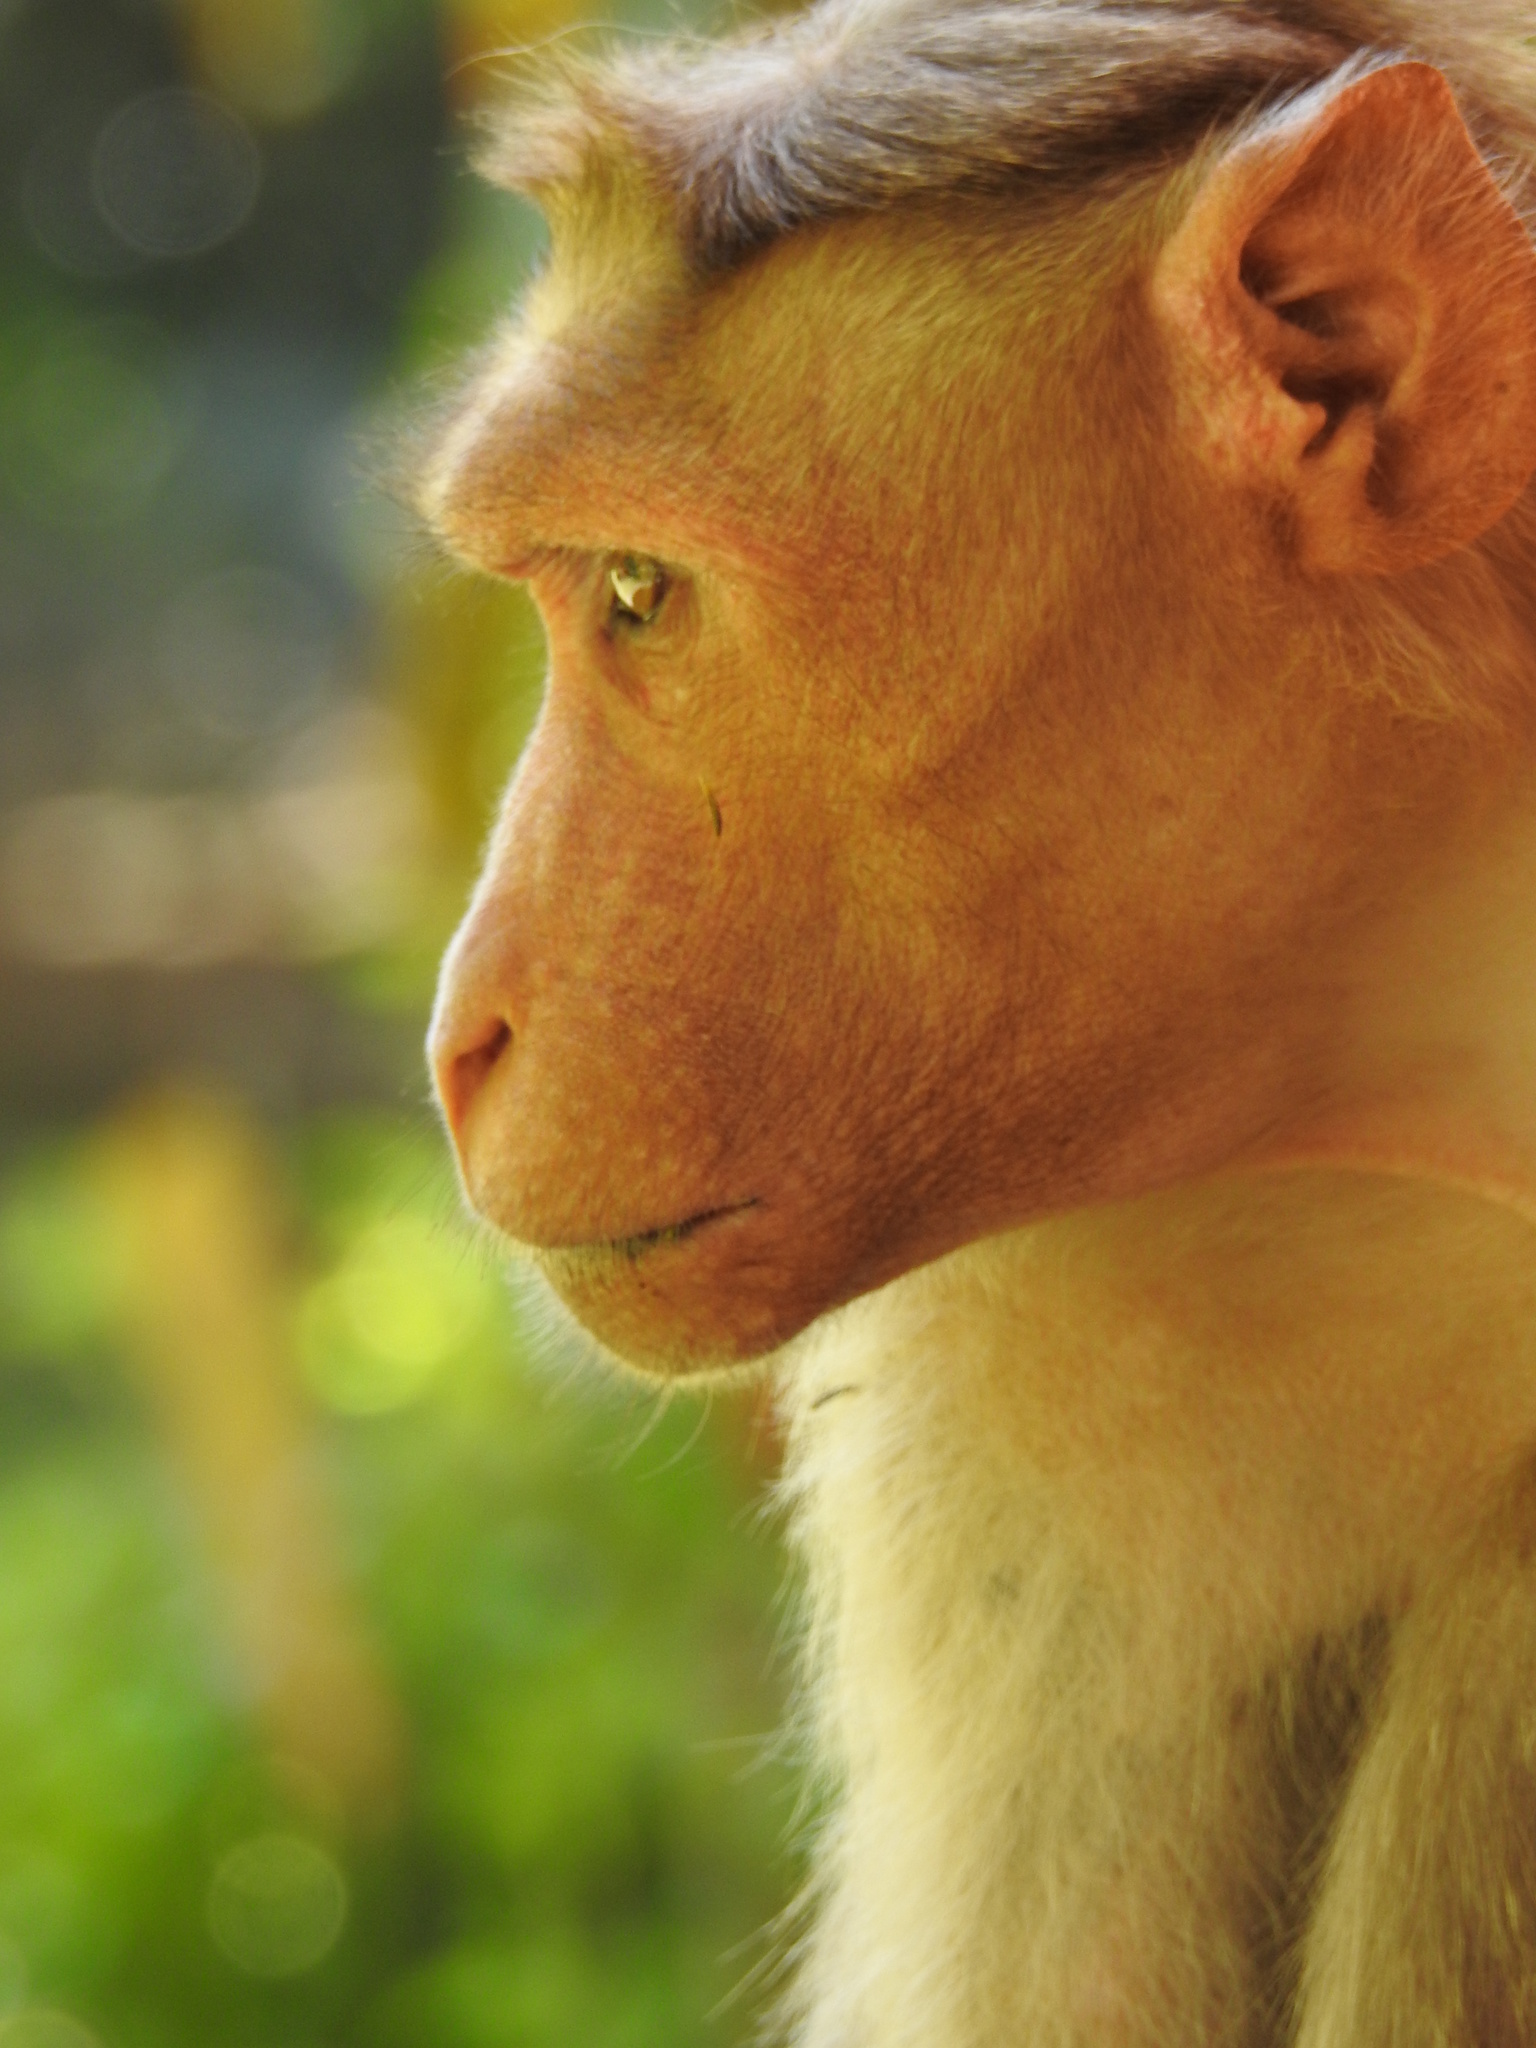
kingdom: Animalia
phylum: Chordata
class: Mammalia
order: Primates
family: Cercopithecidae
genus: Macaca
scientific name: Macaca radiata
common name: Bonnet macaque
